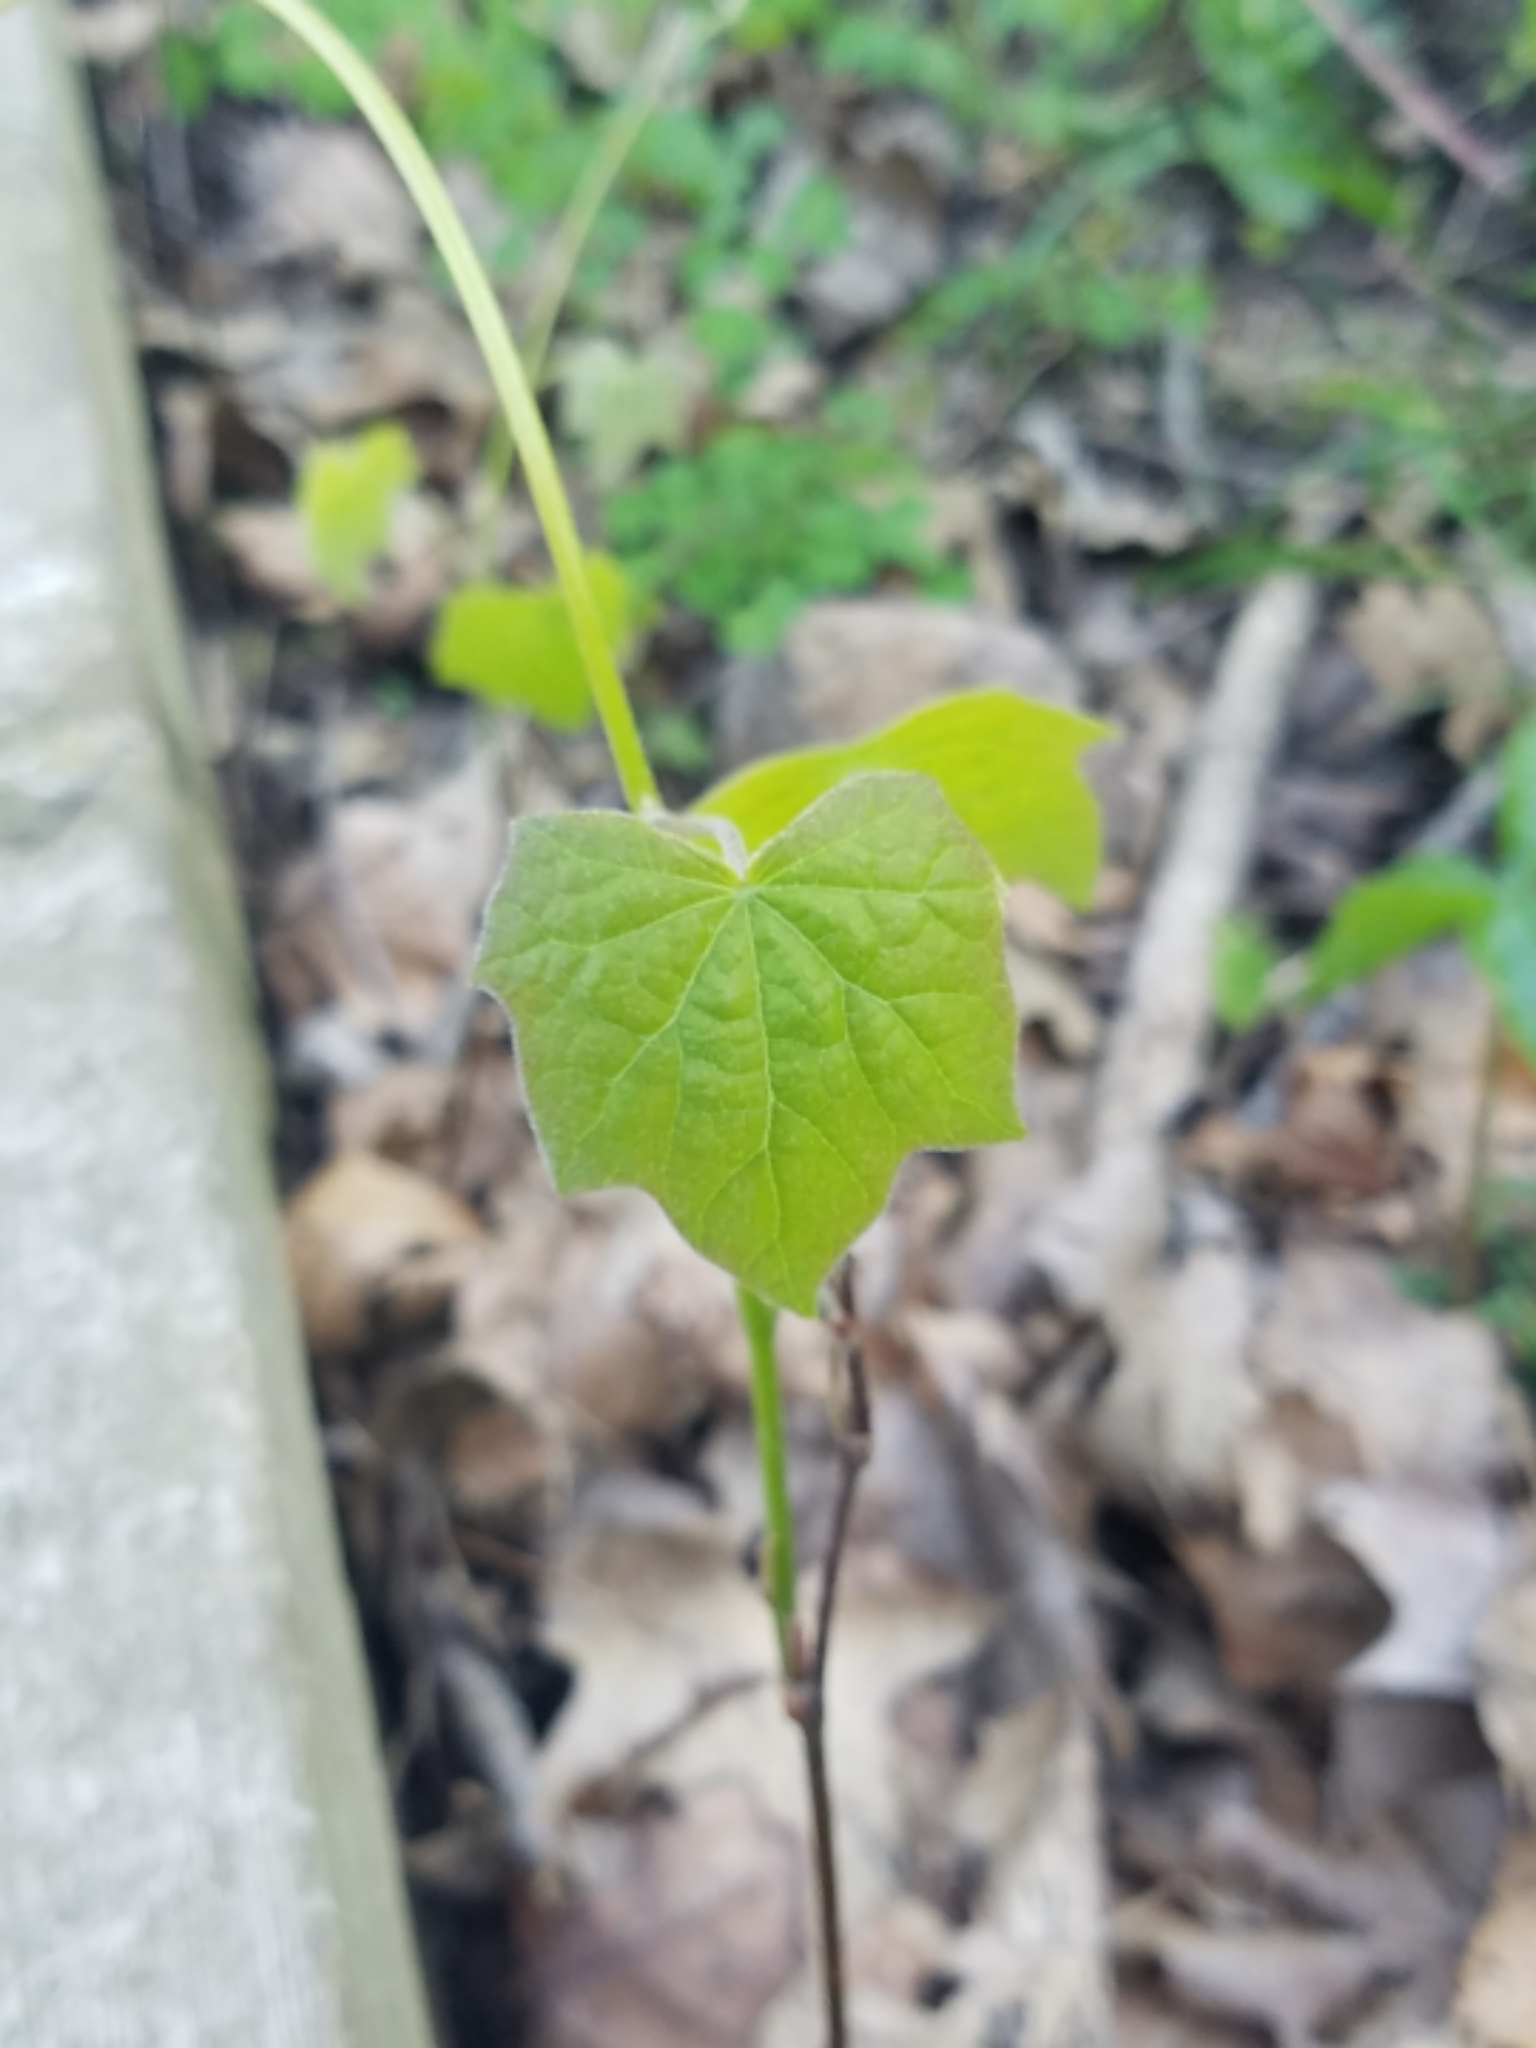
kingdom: Plantae
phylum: Tracheophyta
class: Magnoliopsida
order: Ranunculales
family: Menispermaceae
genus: Menispermum
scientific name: Menispermum canadense
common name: Moonseed
